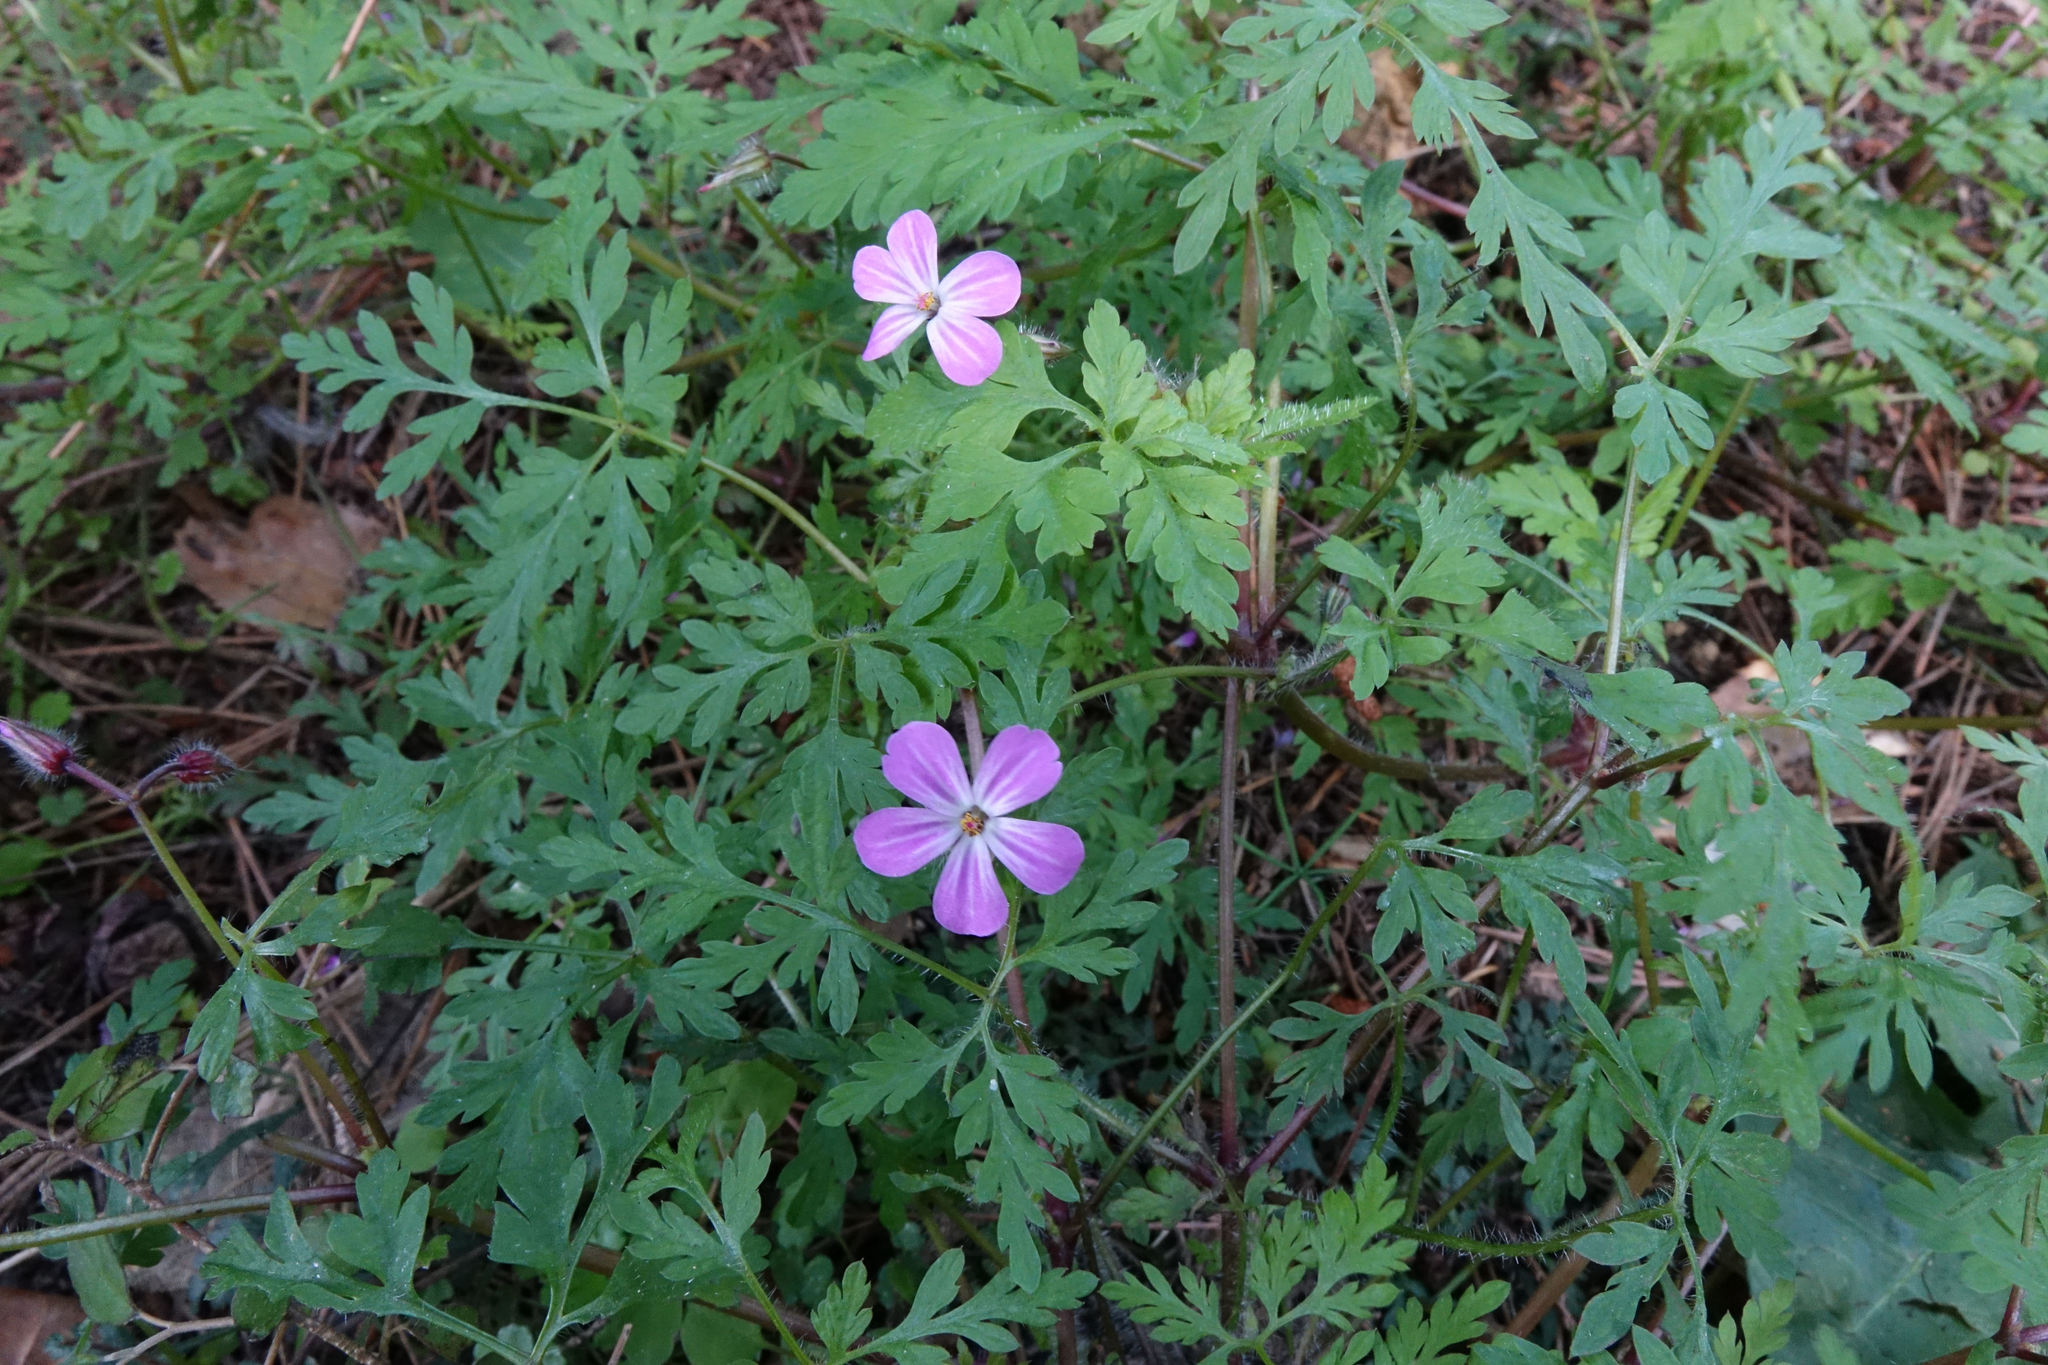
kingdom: Plantae
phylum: Tracheophyta
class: Magnoliopsida
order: Geraniales
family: Geraniaceae
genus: Geranium
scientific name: Geranium robertianum
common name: Herb-robert
